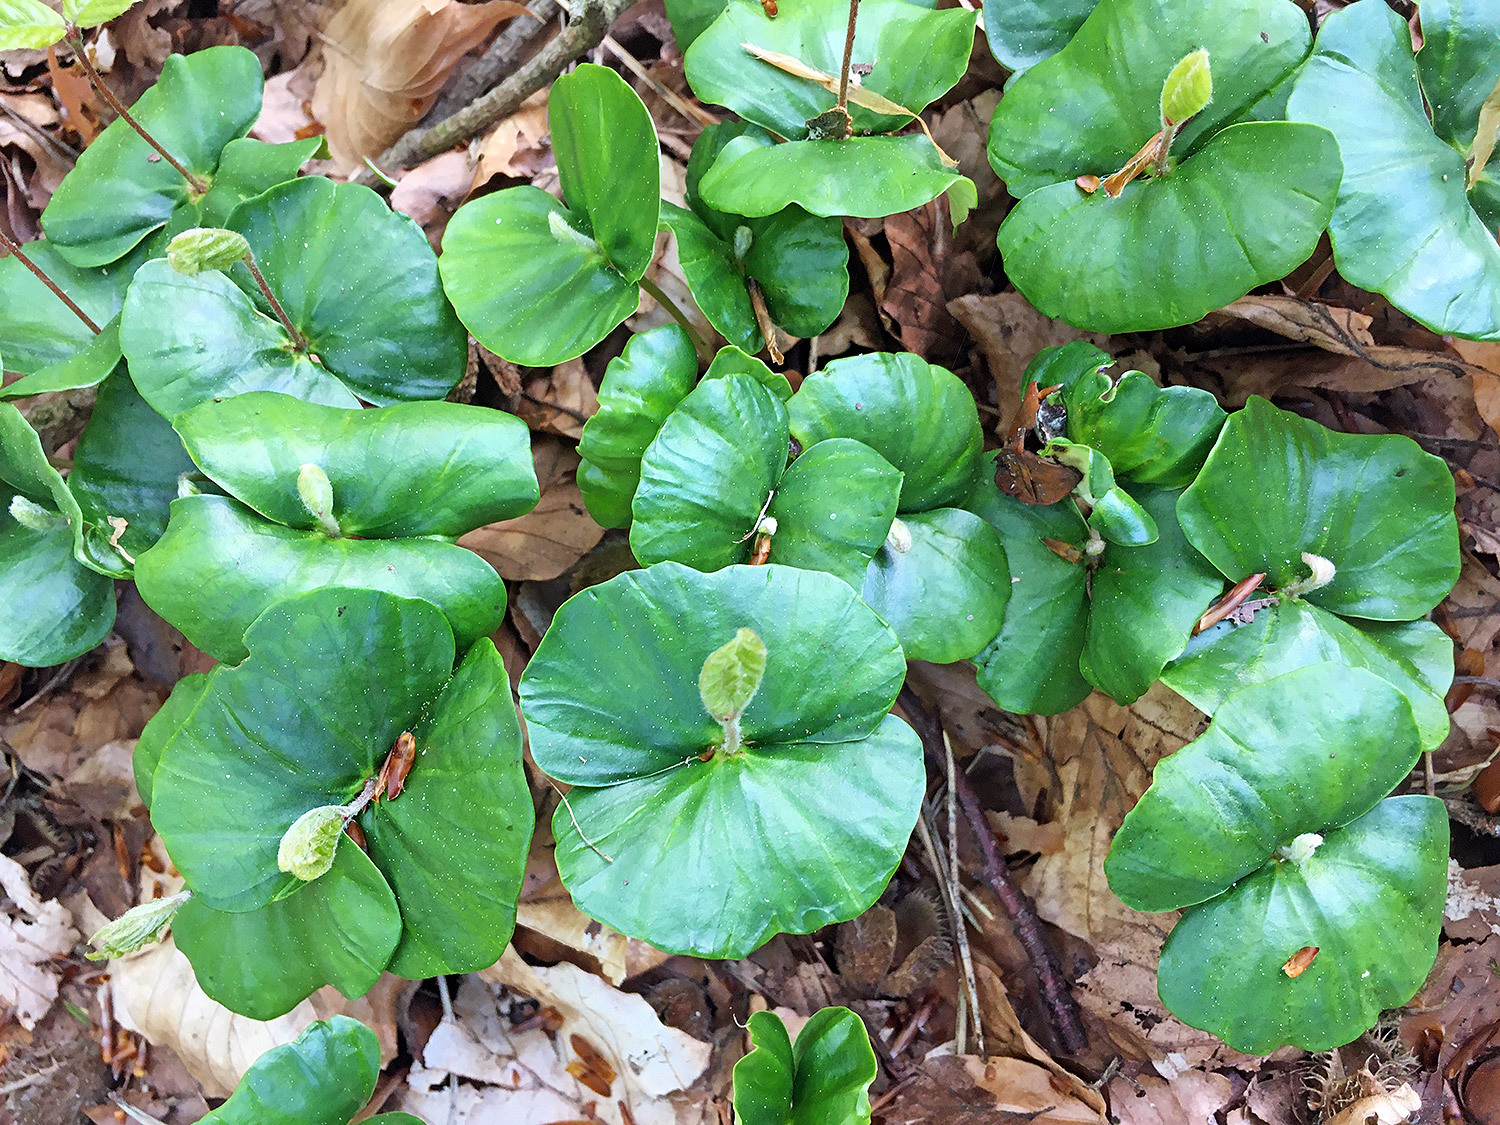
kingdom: Plantae
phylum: Tracheophyta
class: Magnoliopsida
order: Fagales
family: Fagaceae
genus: Fagus
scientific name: Fagus sylvatica
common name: Beech
